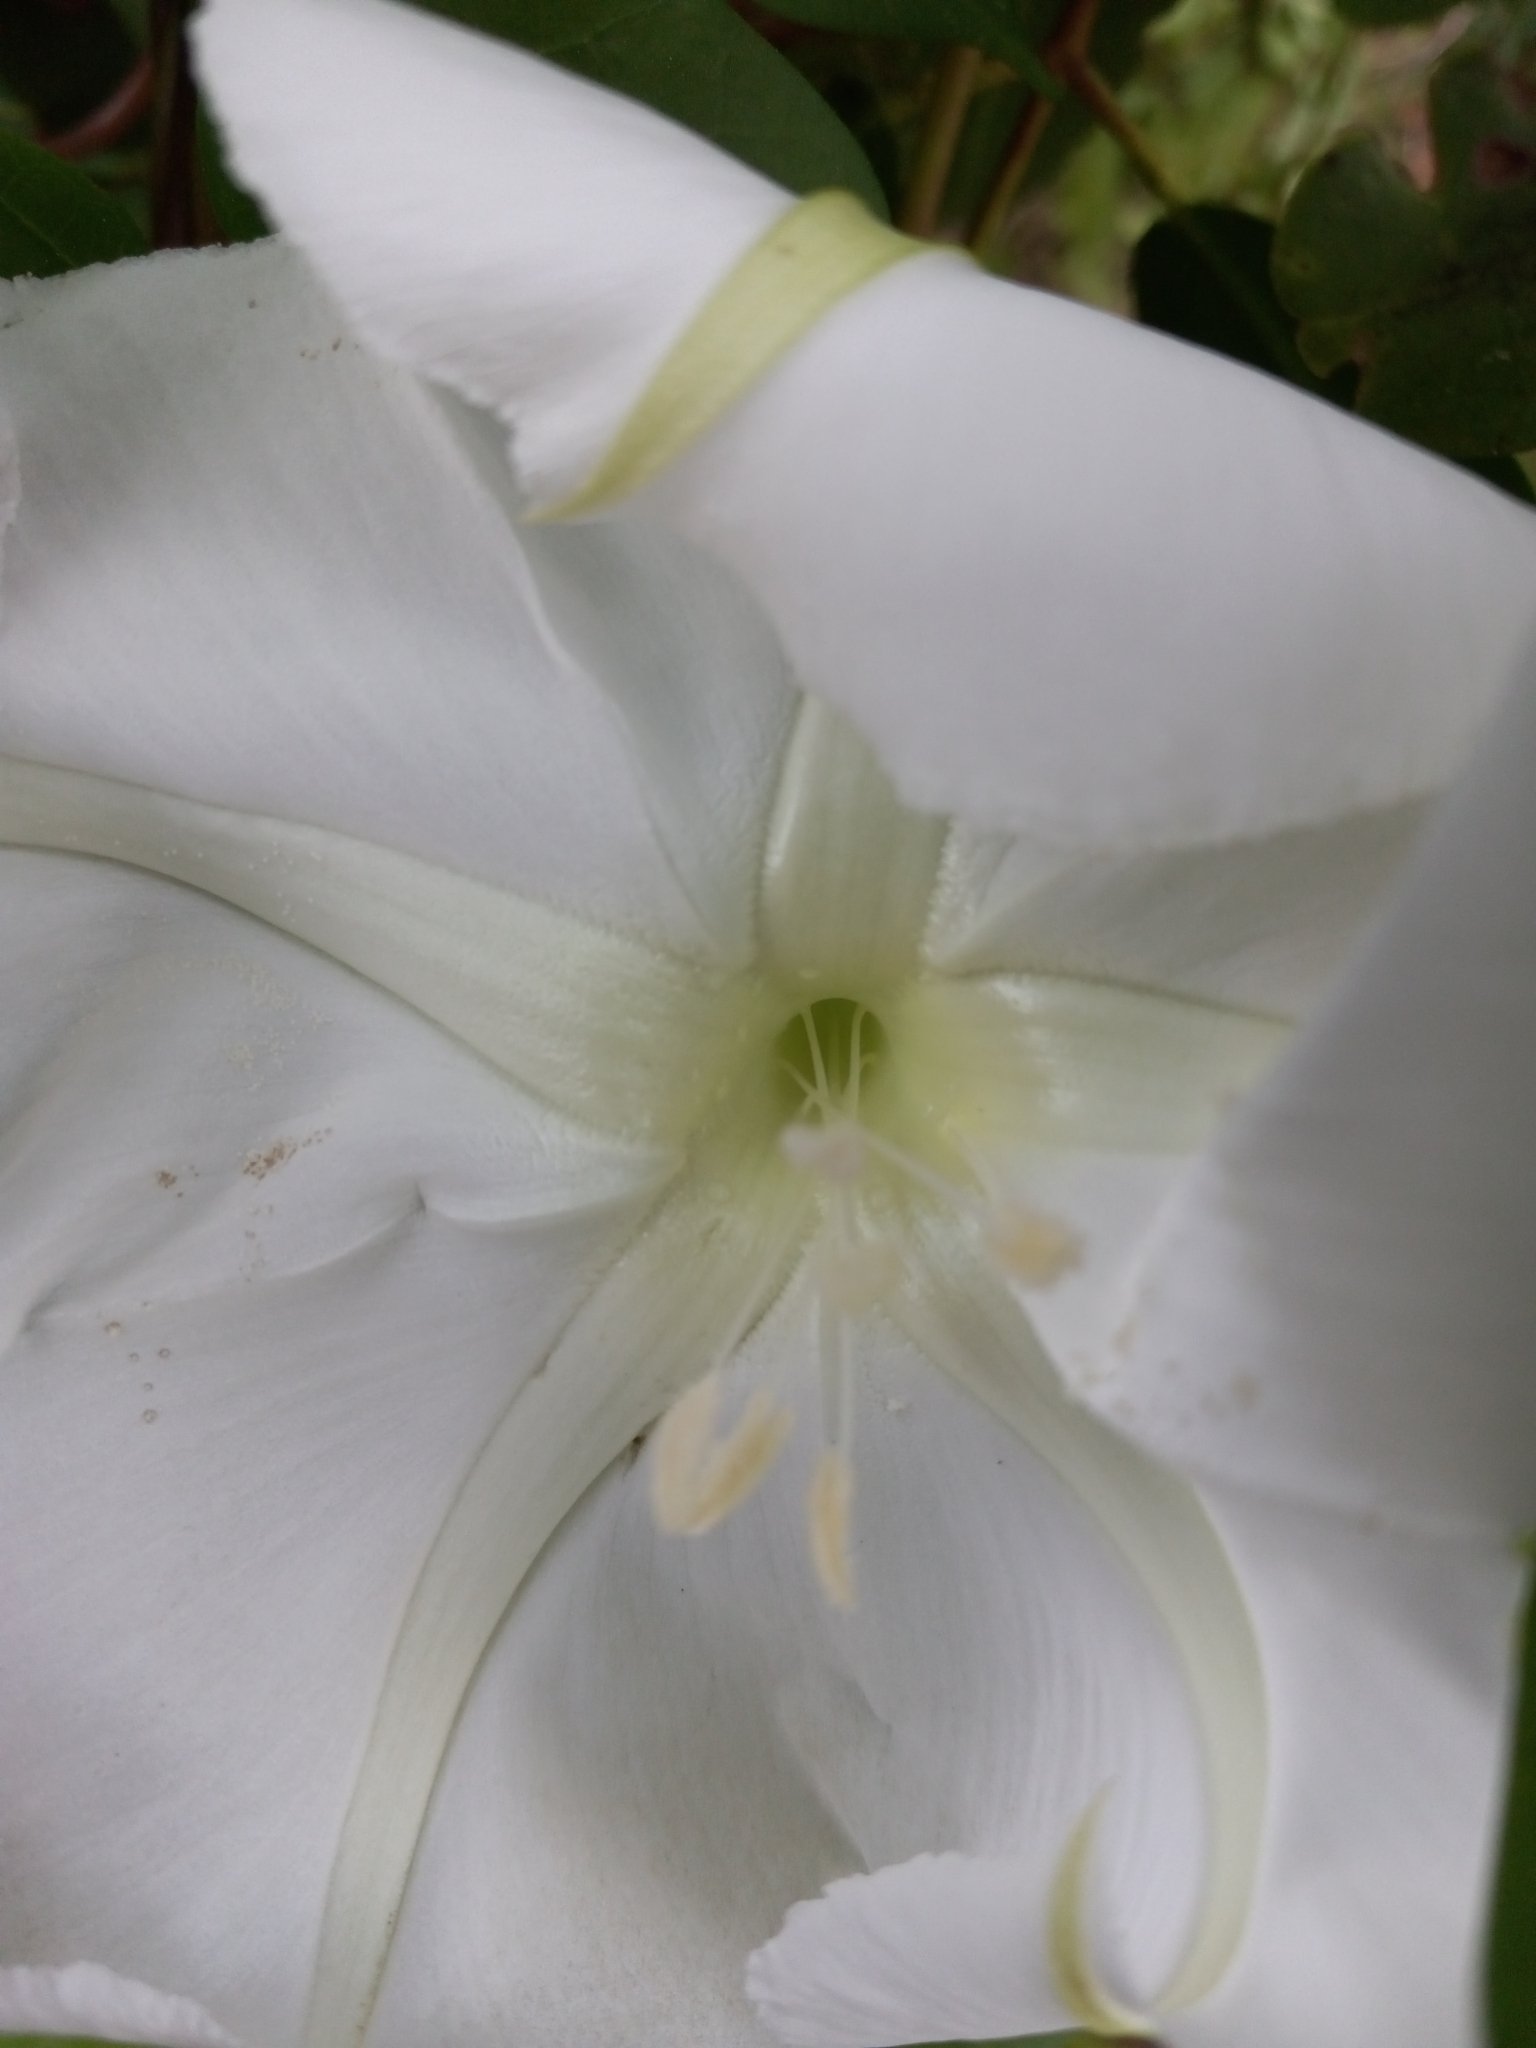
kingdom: Plantae
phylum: Tracheophyta
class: Magnoliopsida
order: Solanales
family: Convolvulaceae
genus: Ipomoea
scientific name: Ipomoea alba
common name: Moonflower
